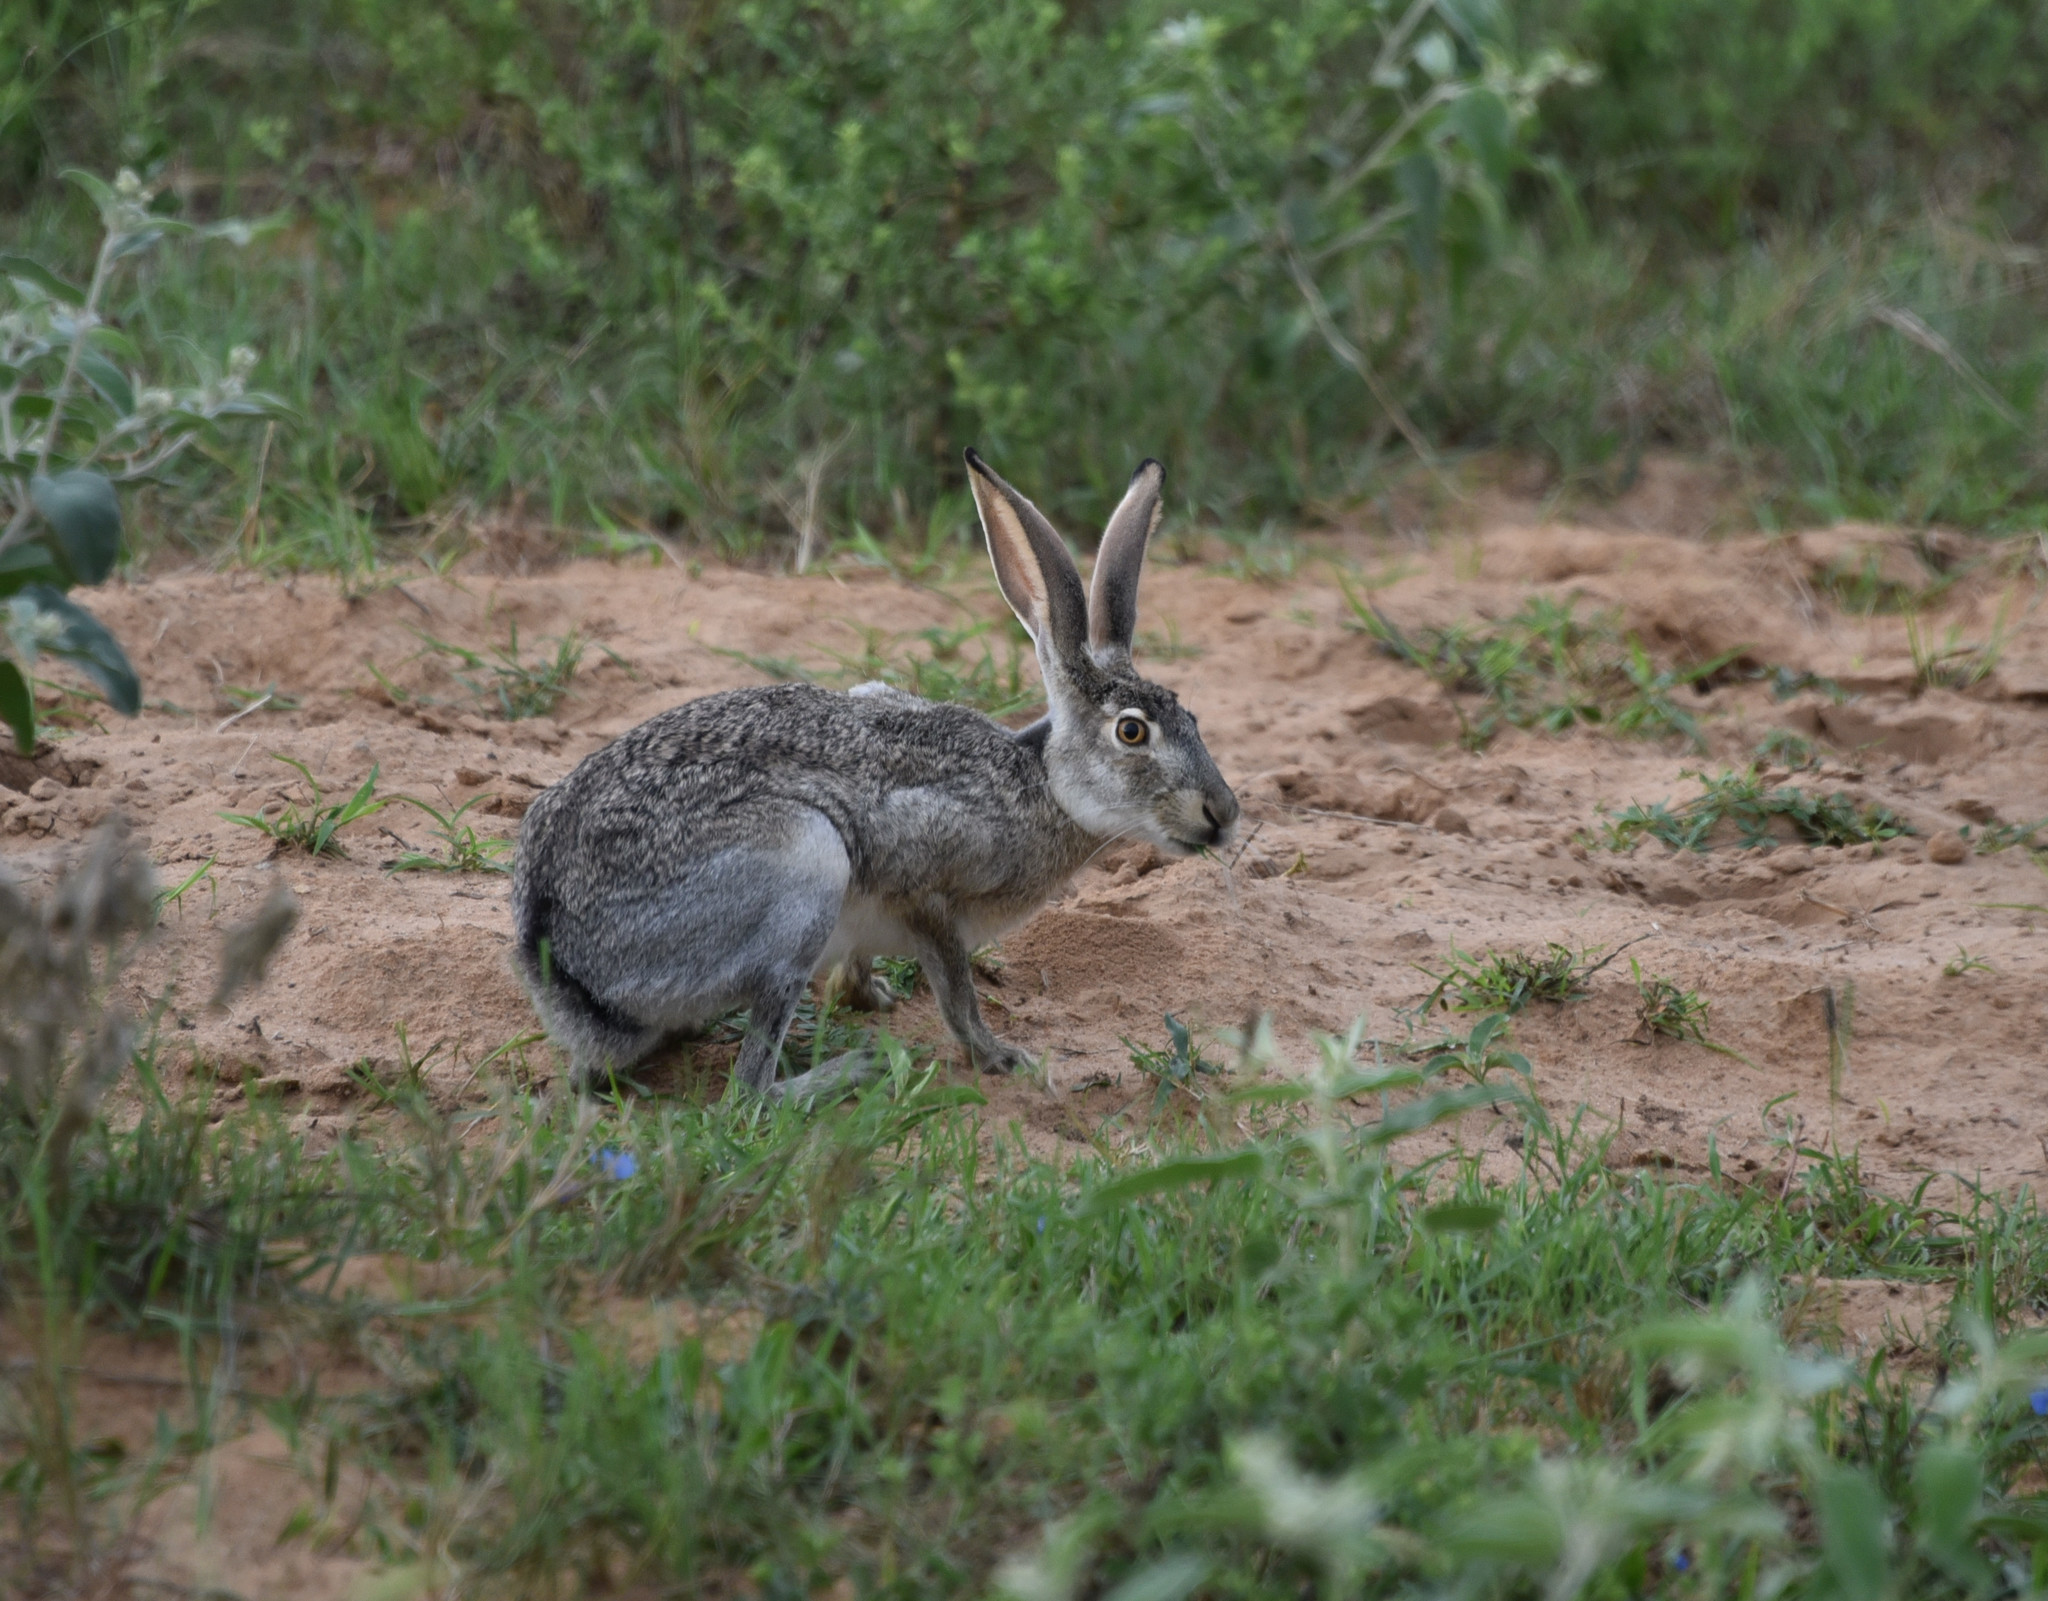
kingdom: Animalia
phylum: Chordata
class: Mammalia
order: Lagomorpha
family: Leporidae
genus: Lepus
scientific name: Lepus californicus
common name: Black-tailed jackrabbit
